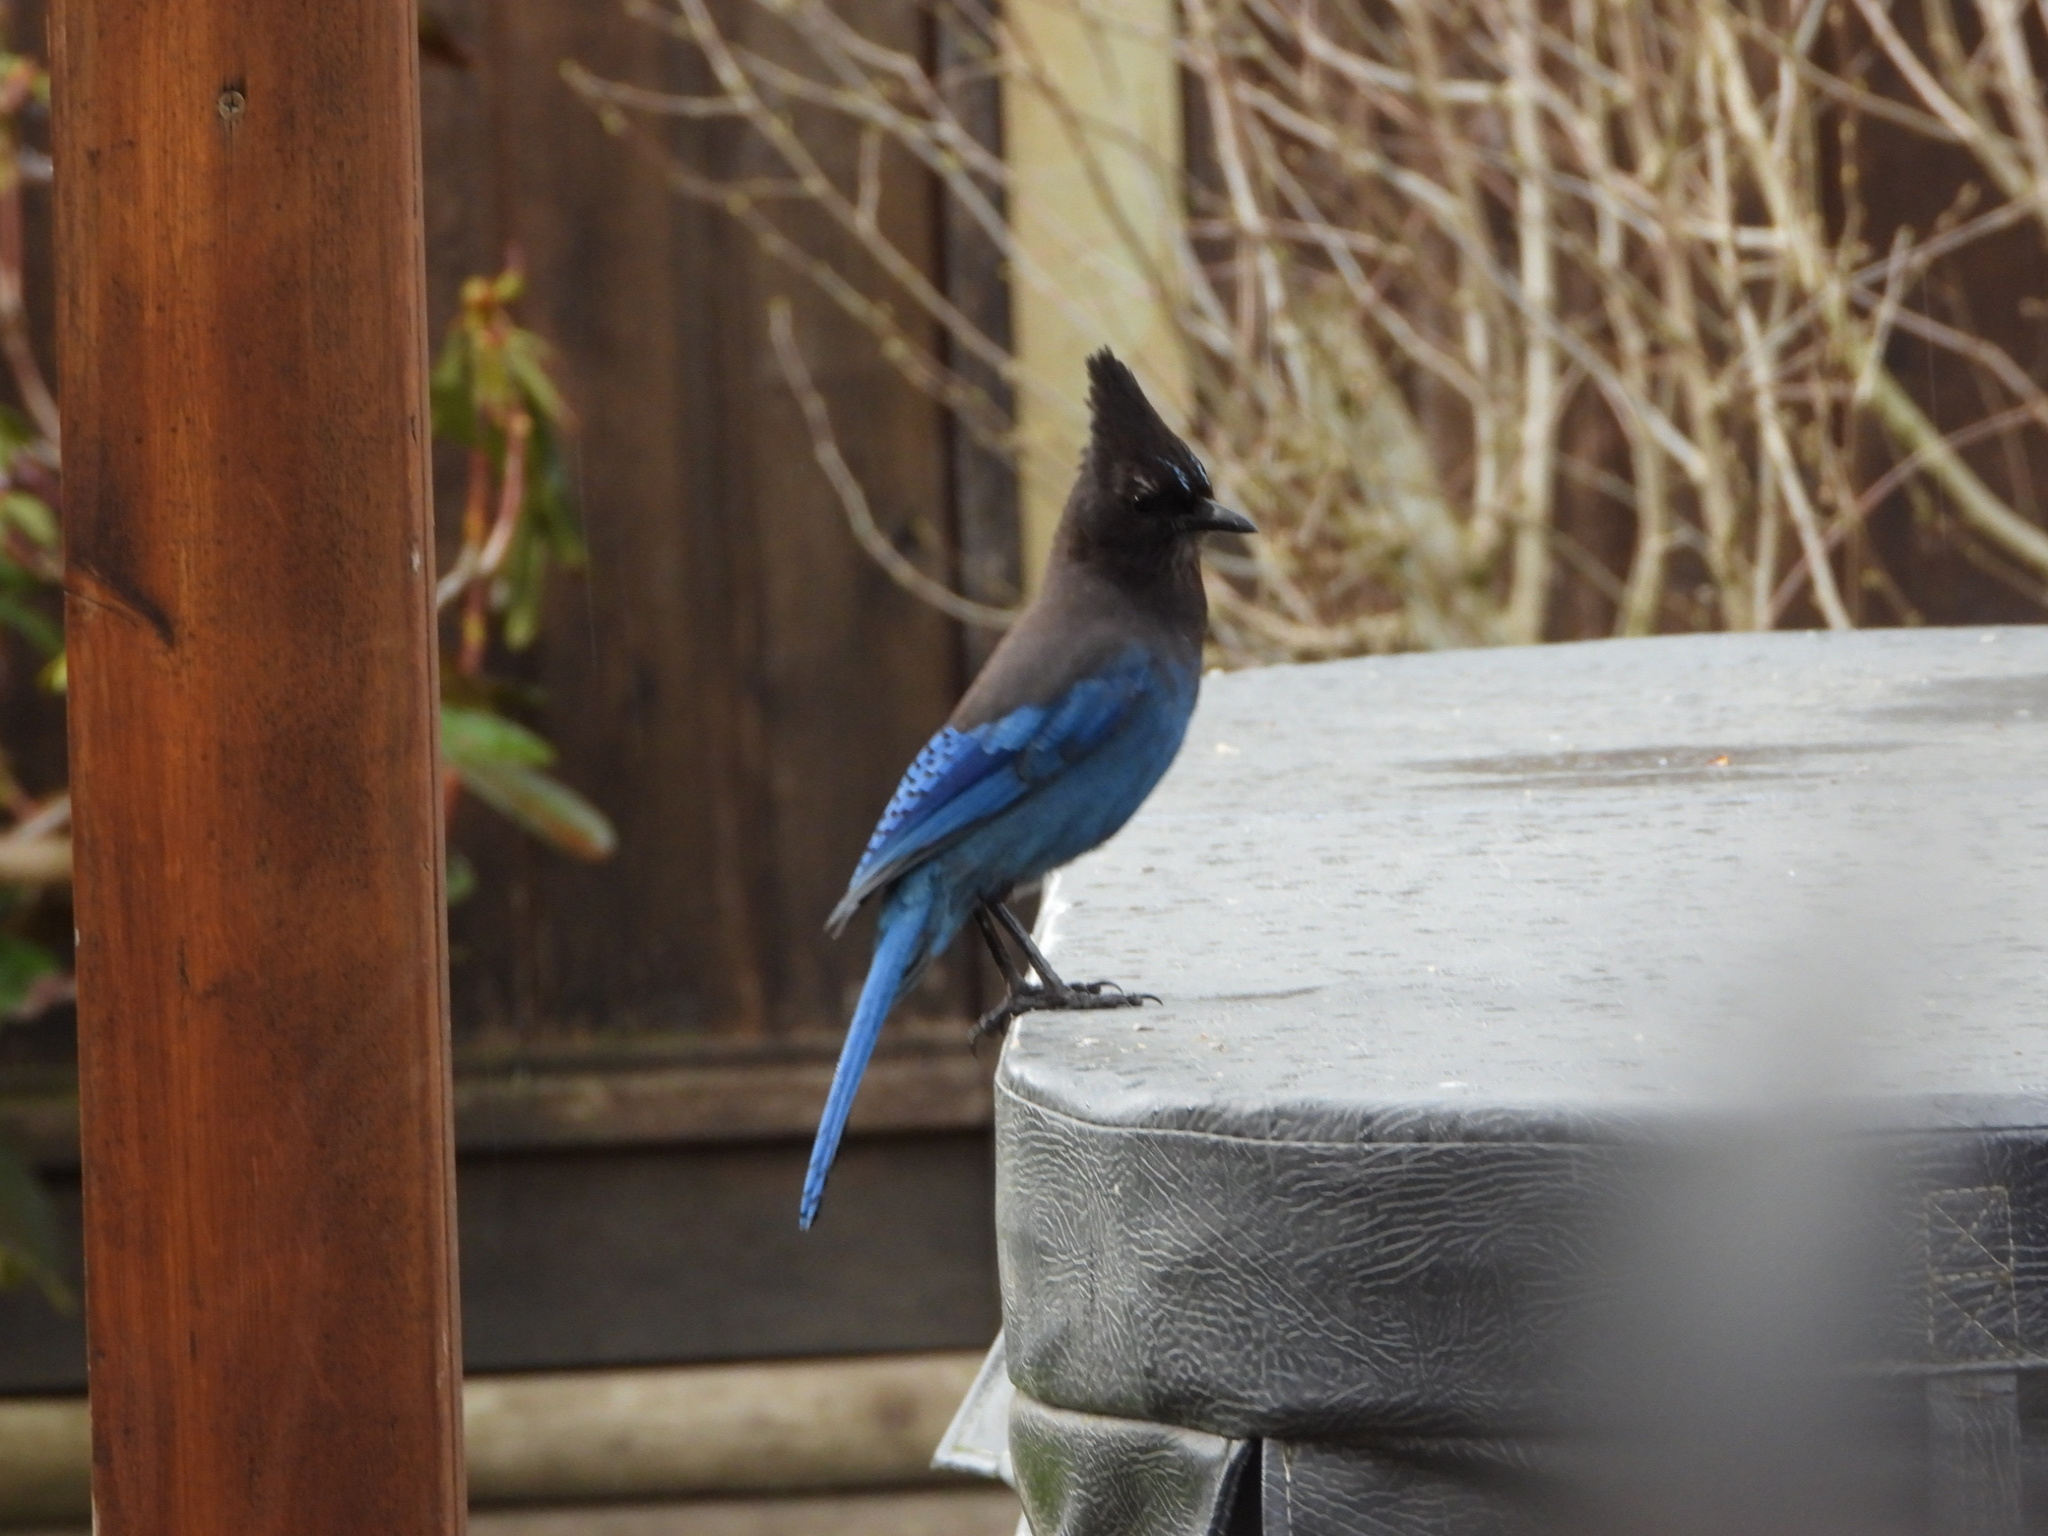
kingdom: Animalia
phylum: Chordata
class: Aves
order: Passeriformes
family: Corvidae
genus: Cyanocitta
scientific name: Cyanocitta stelleri
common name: Steller's jay
